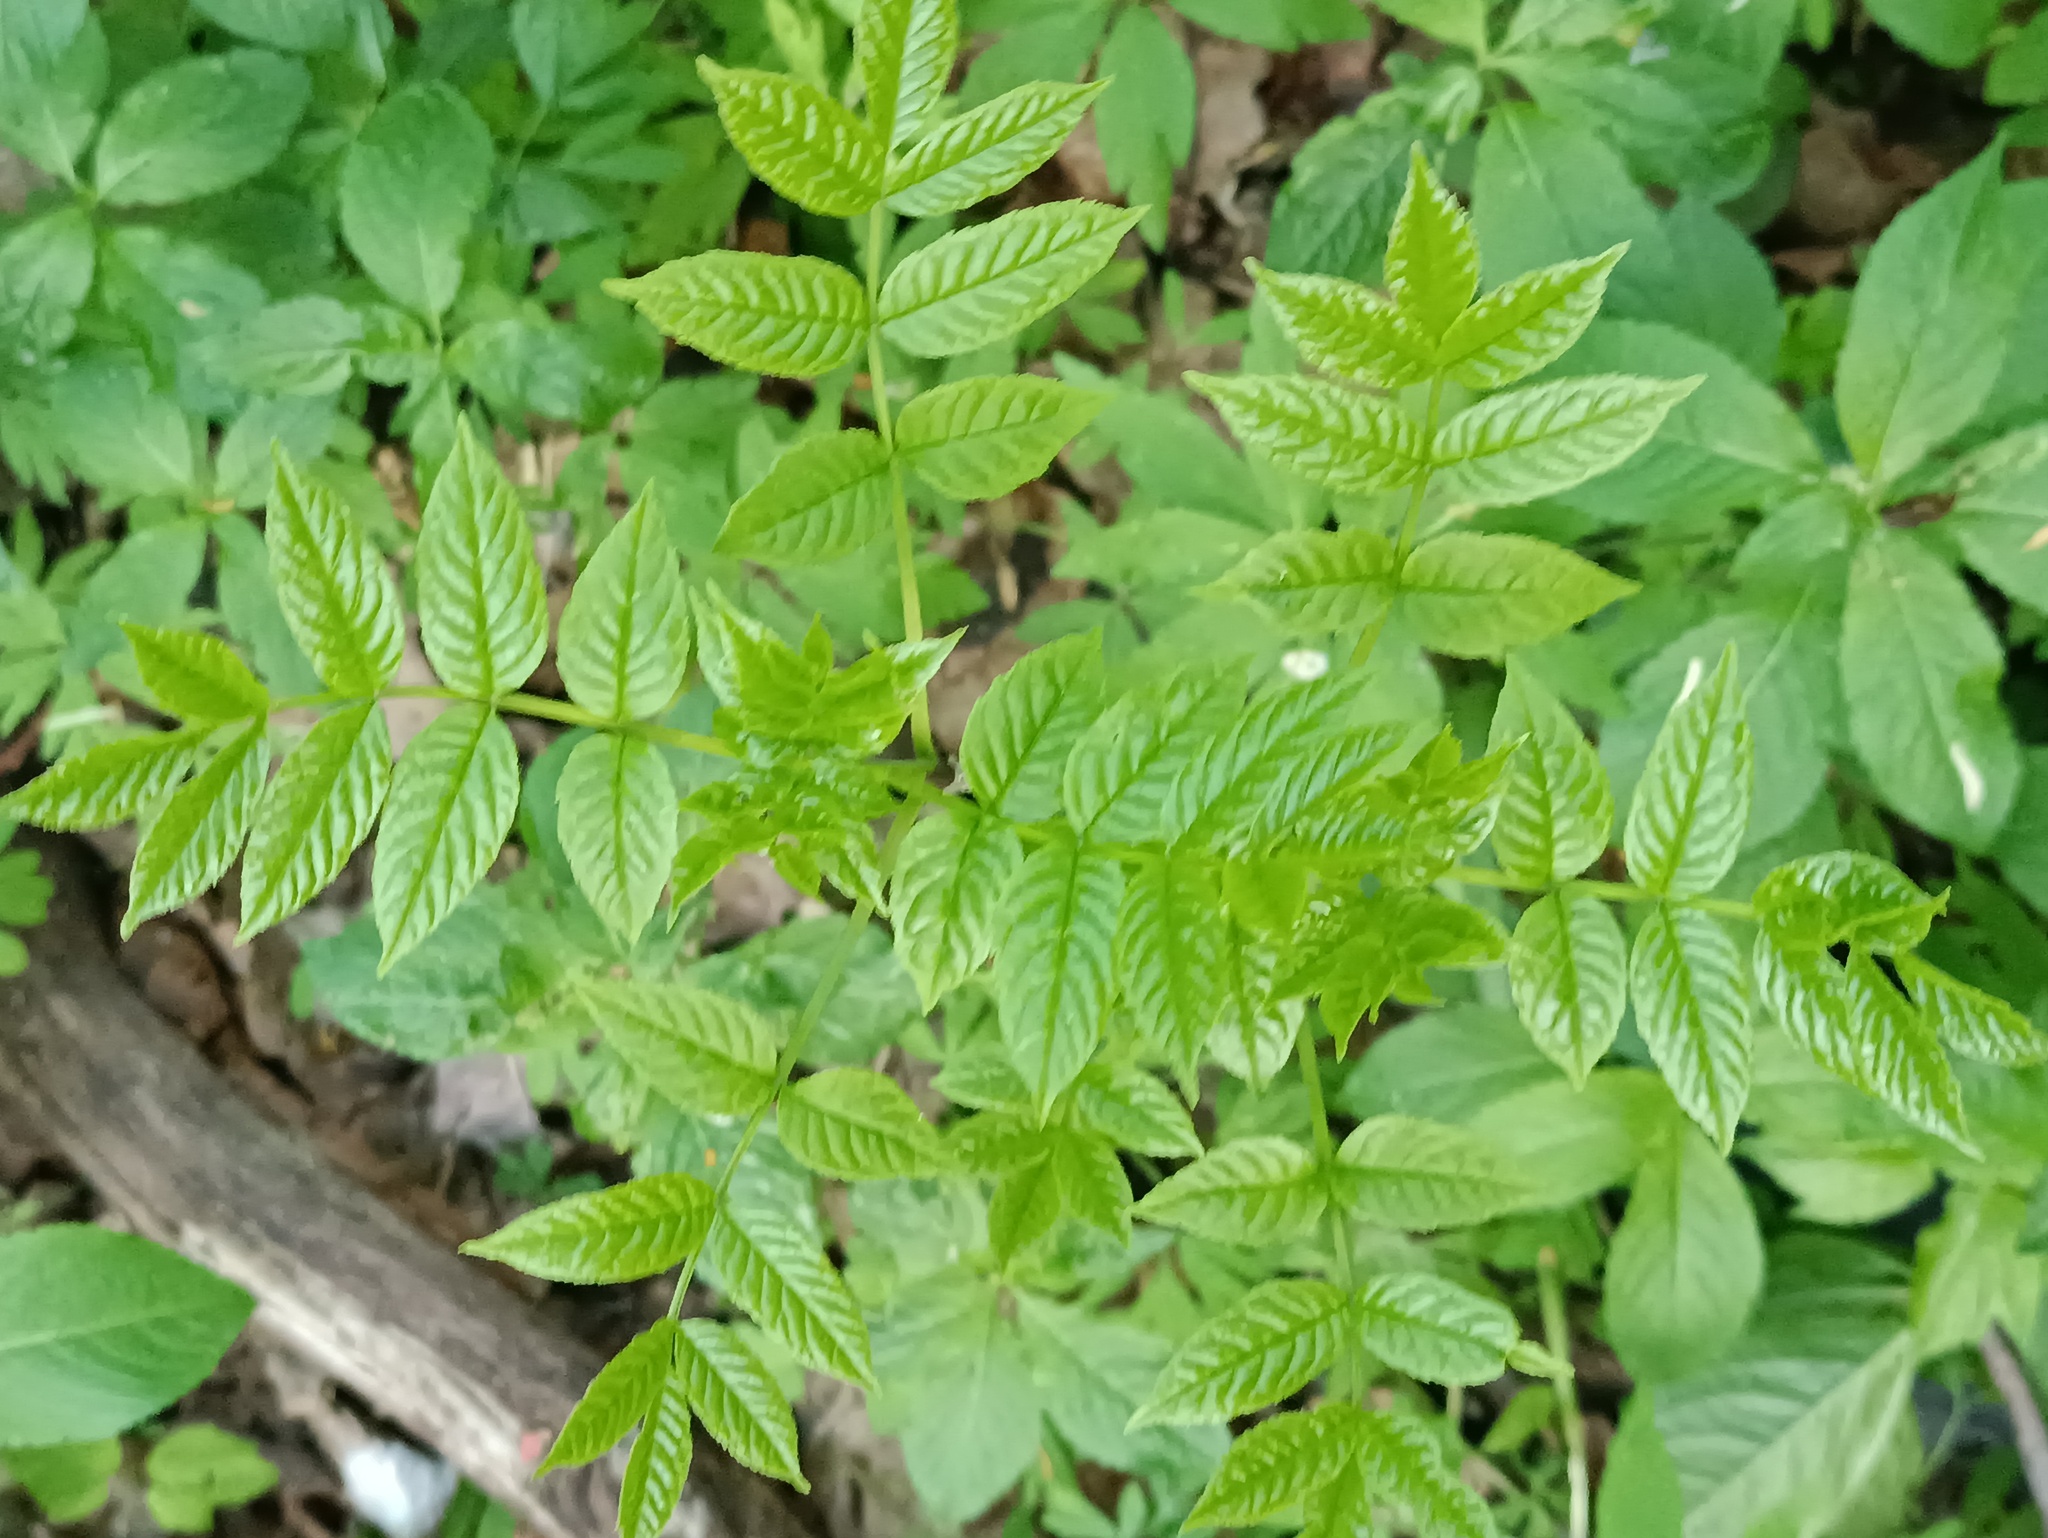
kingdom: Plantae
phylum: Tracheophyta
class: Magnoliopsida
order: Lamiales
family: Oleaceae
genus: Fraxinus
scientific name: Fraxinus excelsior
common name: European ash
